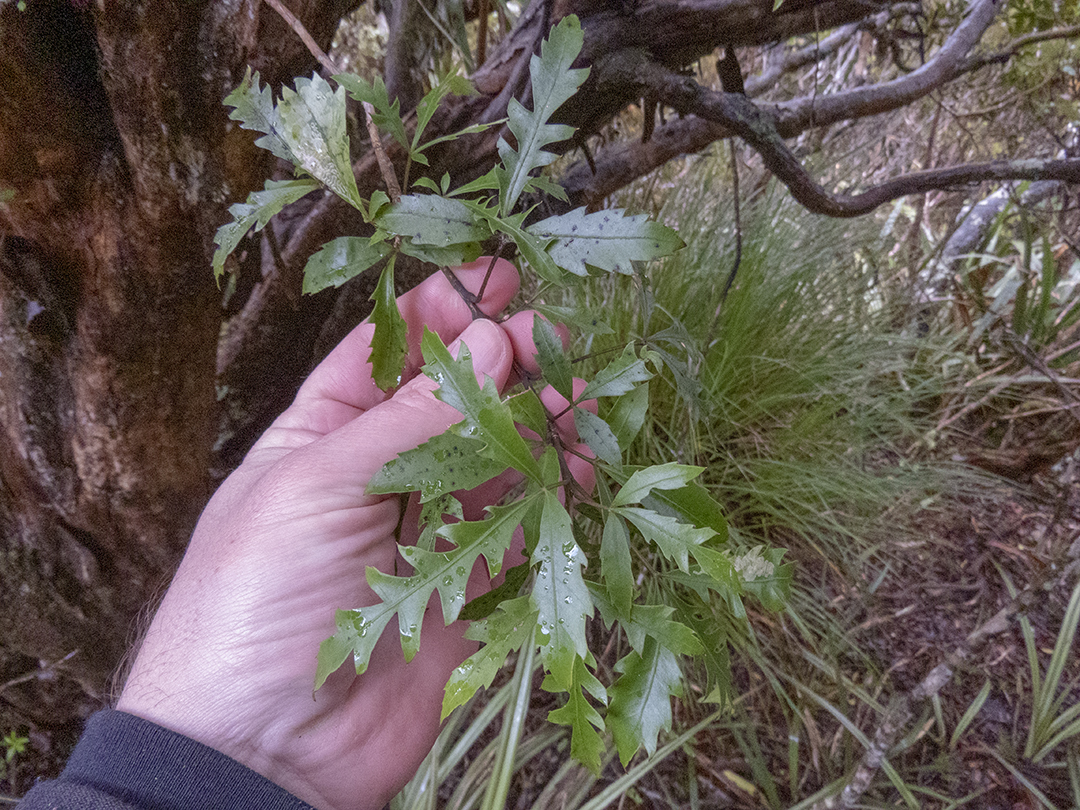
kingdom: Plantae
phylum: Tracheophyta
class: Magnoliopsida
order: Apiales
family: Araliaceae
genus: Raukaua
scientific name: Raukaua simplex
